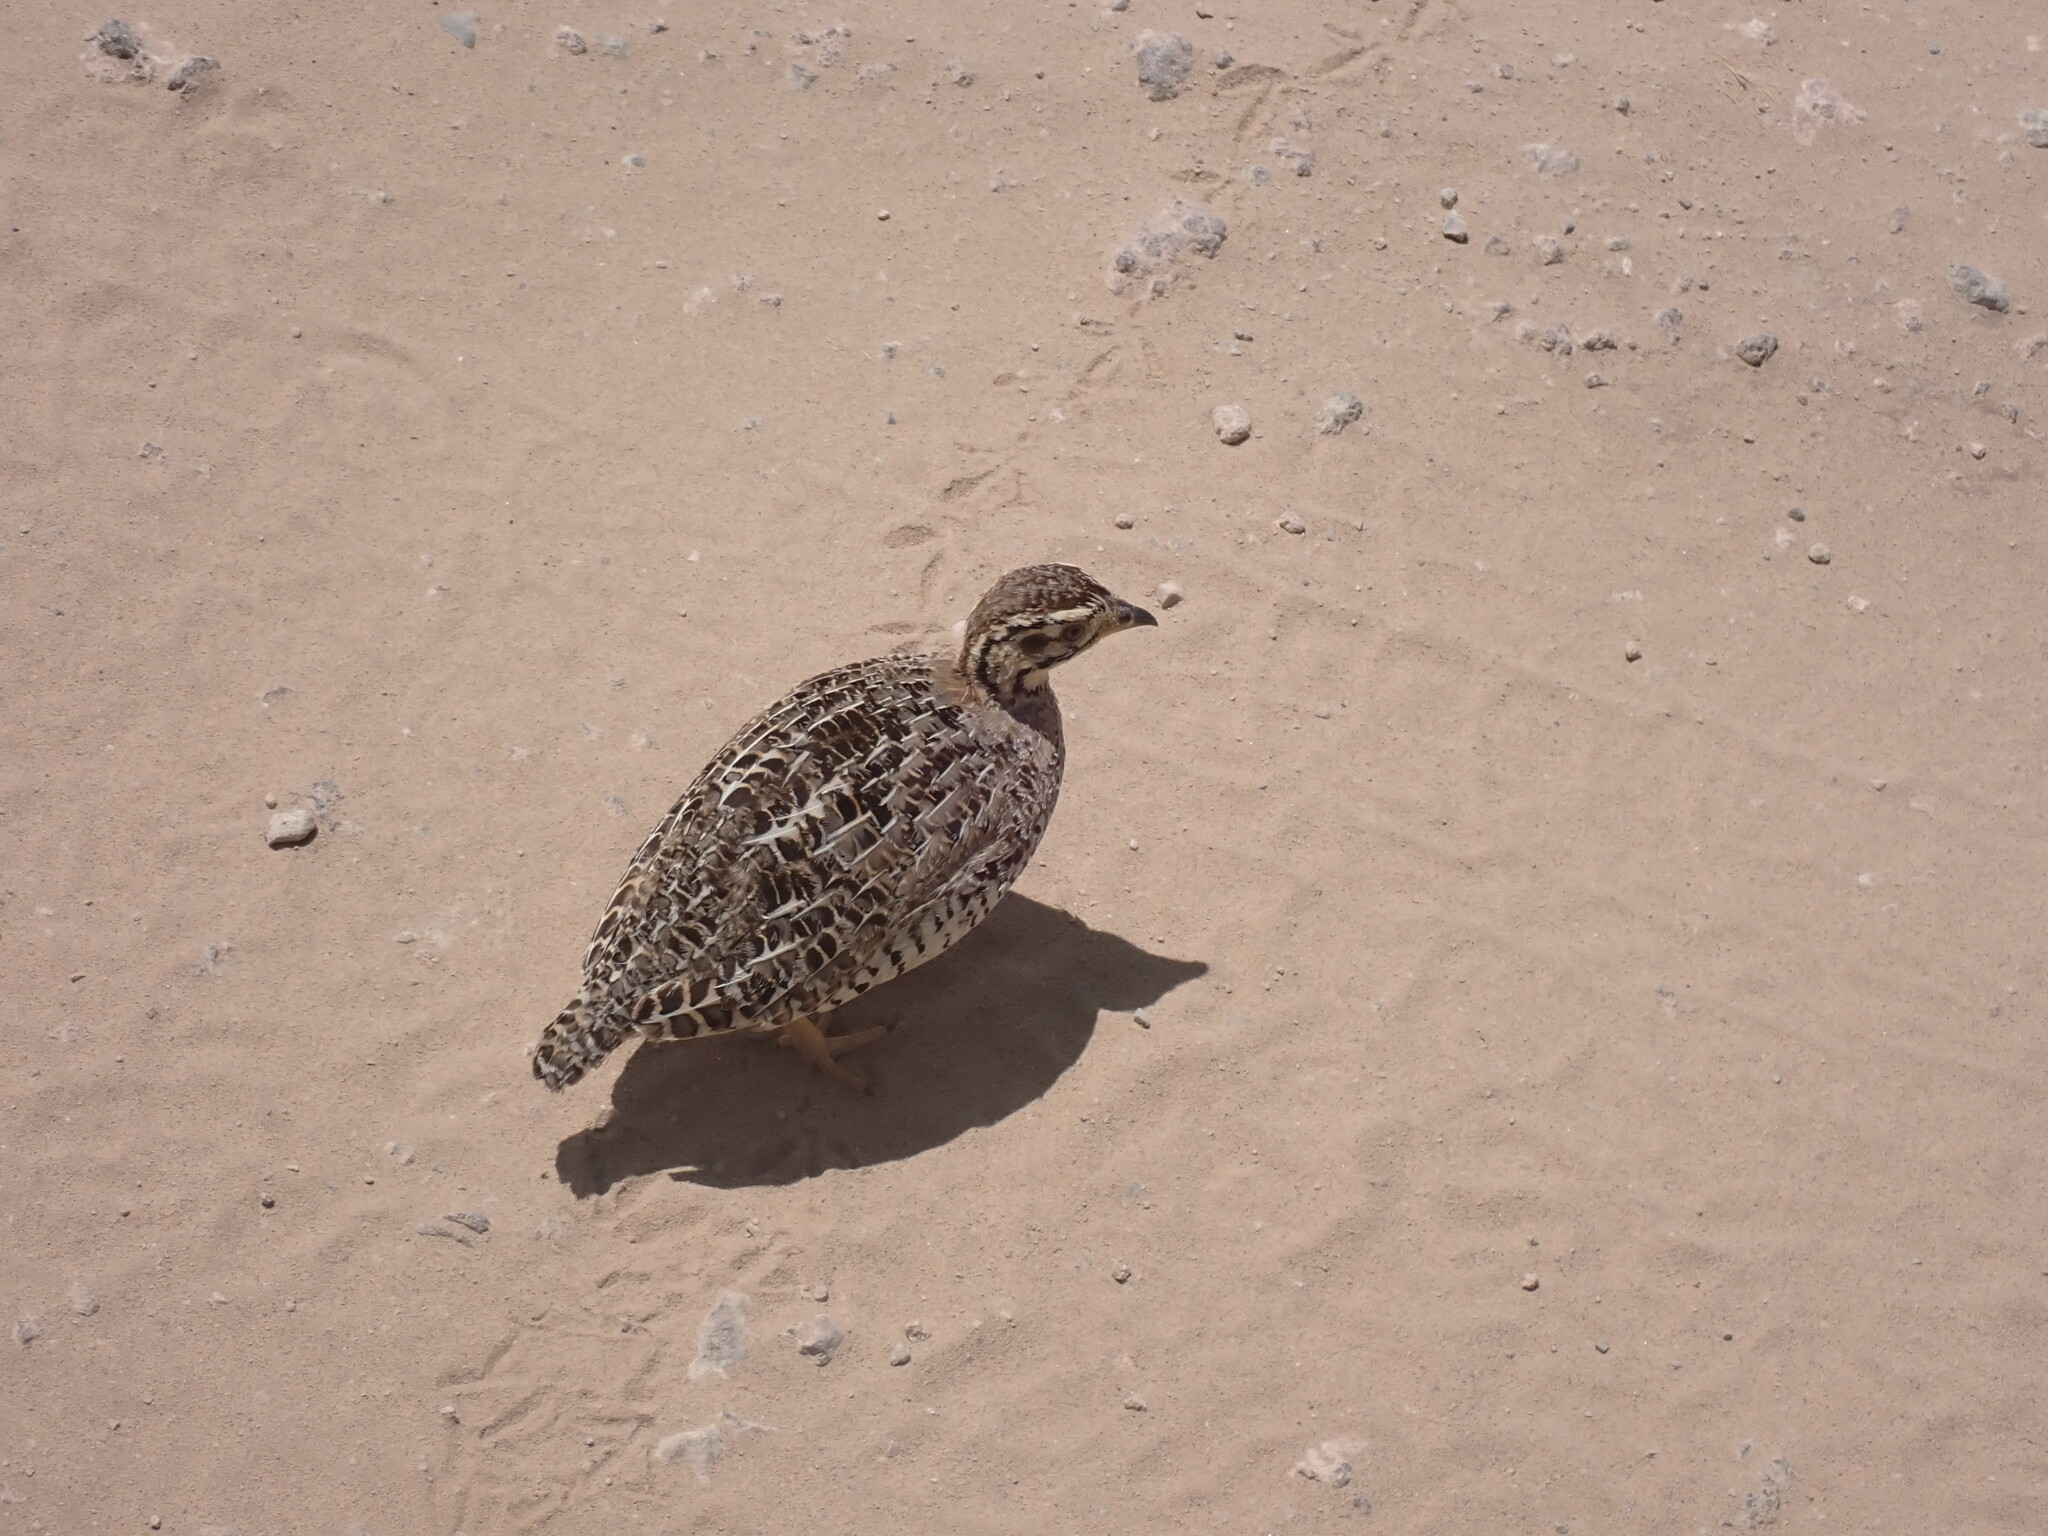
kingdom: Animalia
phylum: Chordata
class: Aves
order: Galliformes
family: Phasianidae
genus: Campocolinus
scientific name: Campocolinus coqui
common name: Coqui francolin
